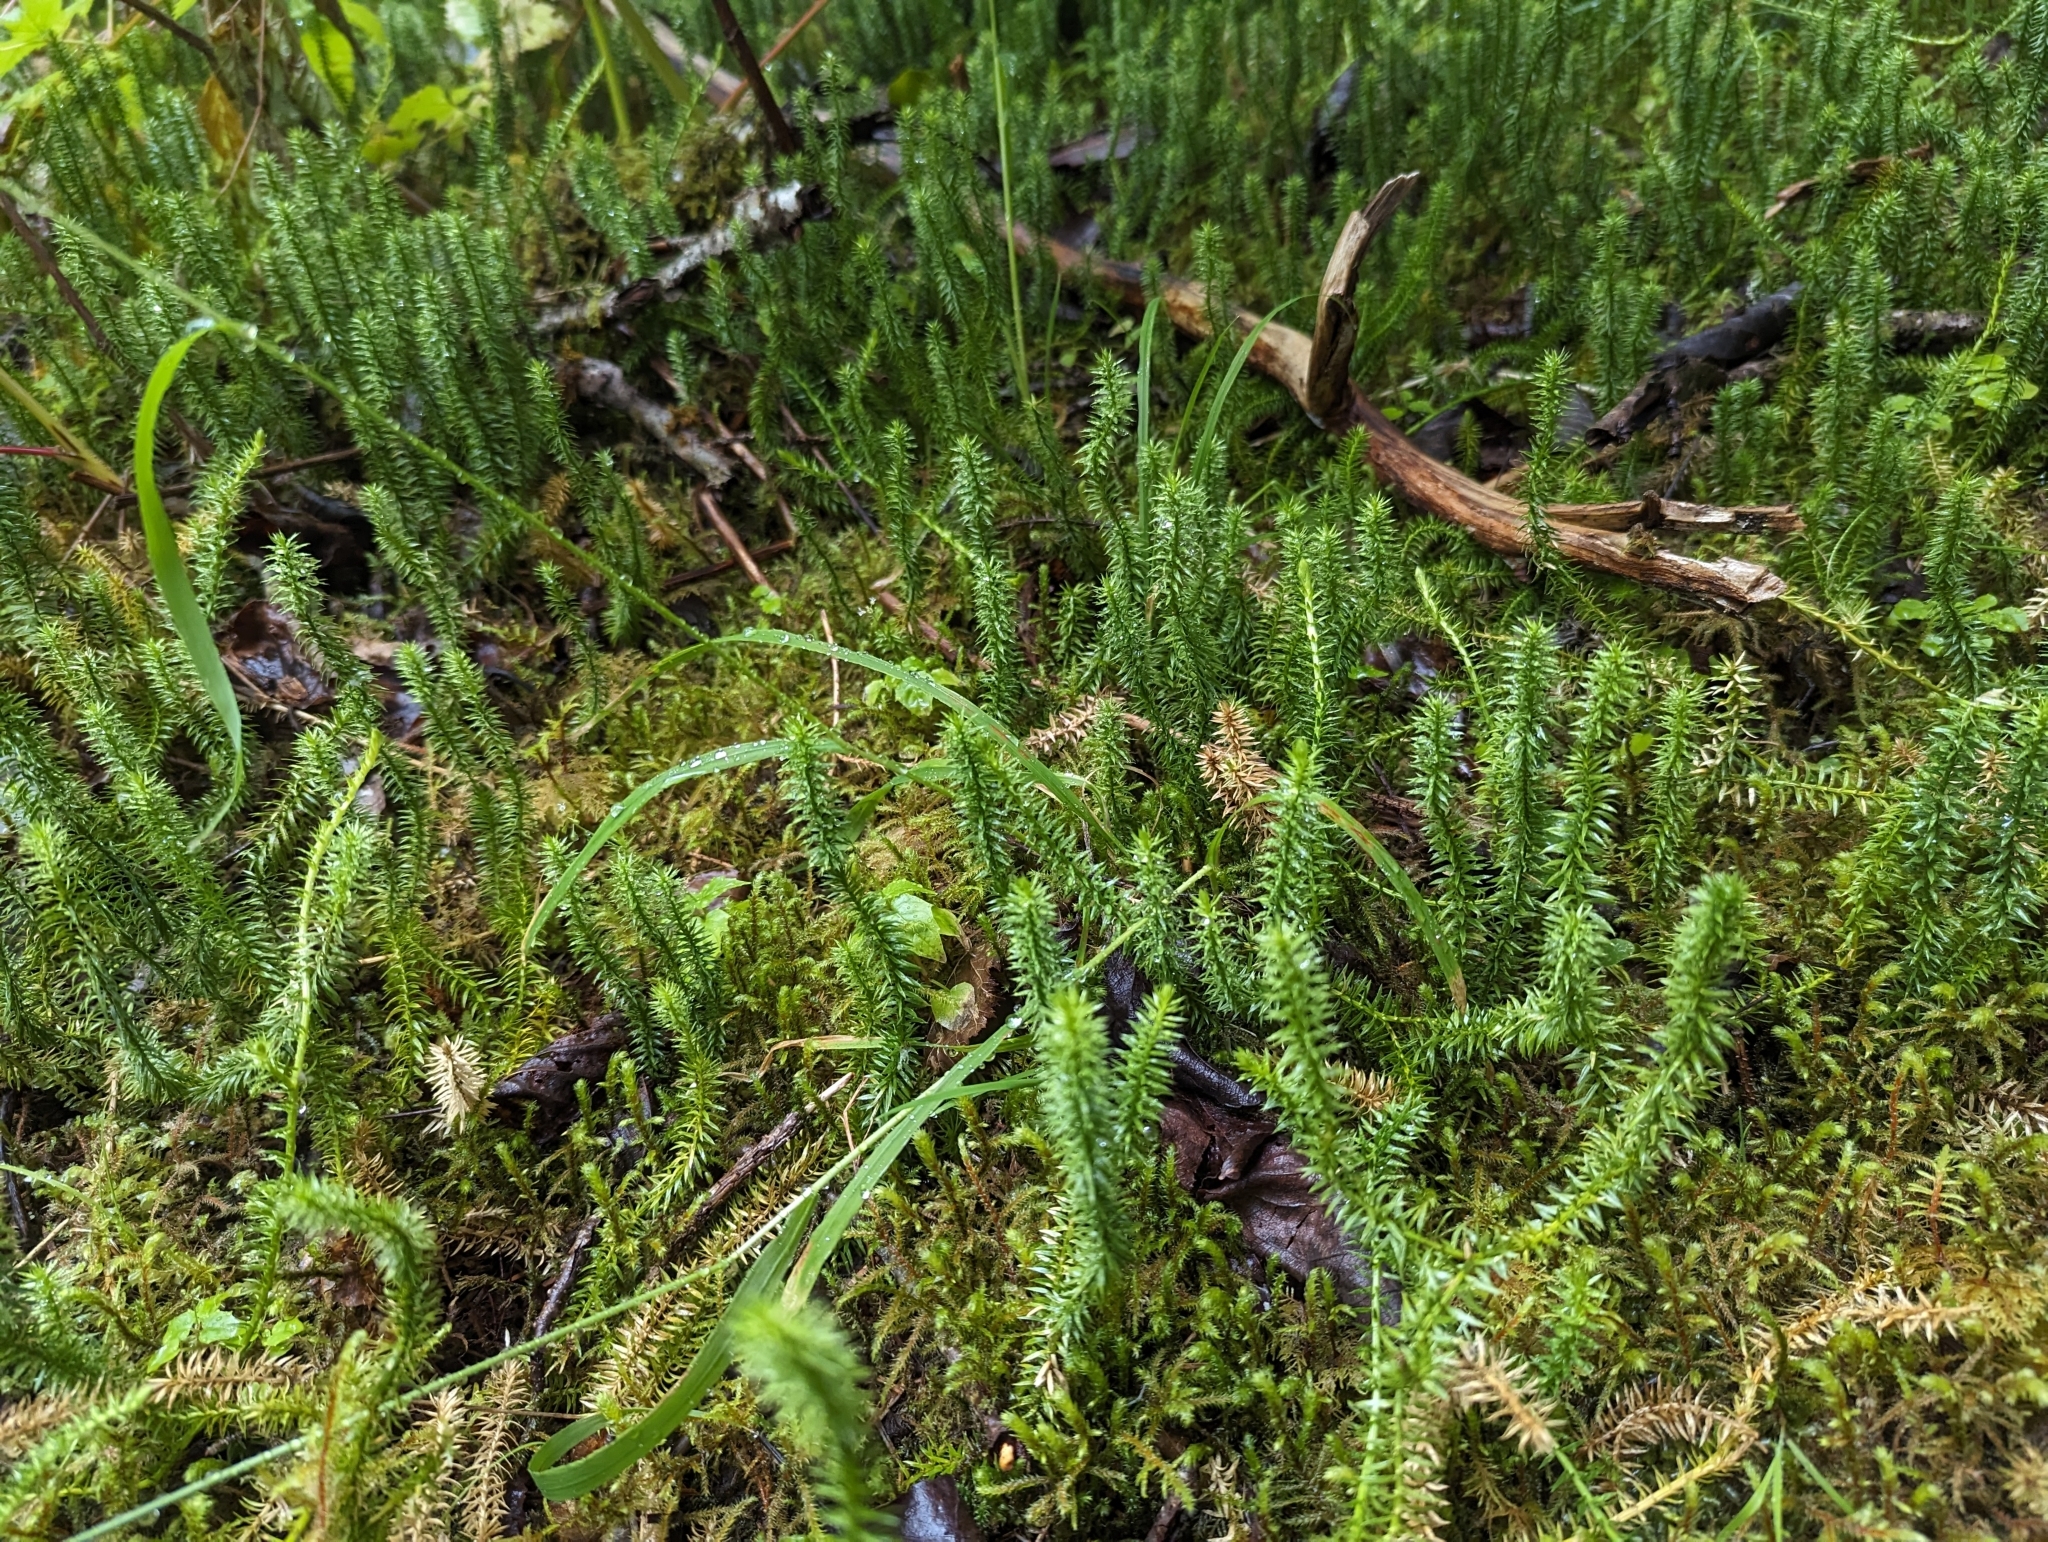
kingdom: Plantae
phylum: Tracheophyta
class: Lycopodiopsida
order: Lycopodiales
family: Lycopodiaceae
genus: Spinulum
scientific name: Spinulum annotinum
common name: Interrupted club-moss
